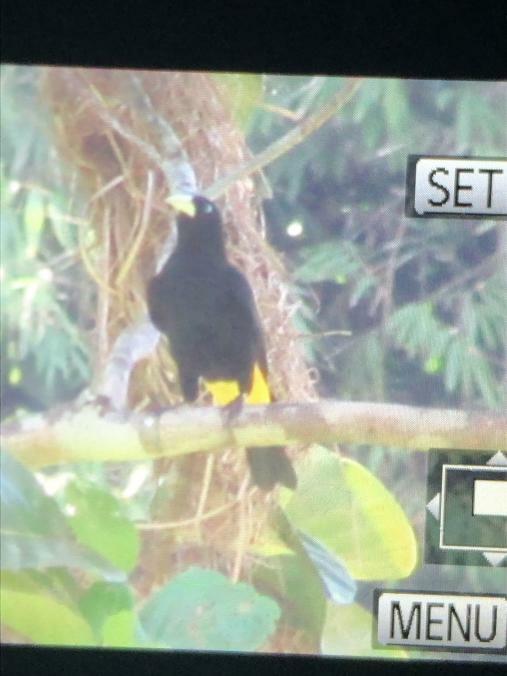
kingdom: Animalia
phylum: Chordata
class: Aves
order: Passeriformes
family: Icteridae
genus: Cacicus
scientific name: Cacicus cela
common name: Yellow-rumped cacique
